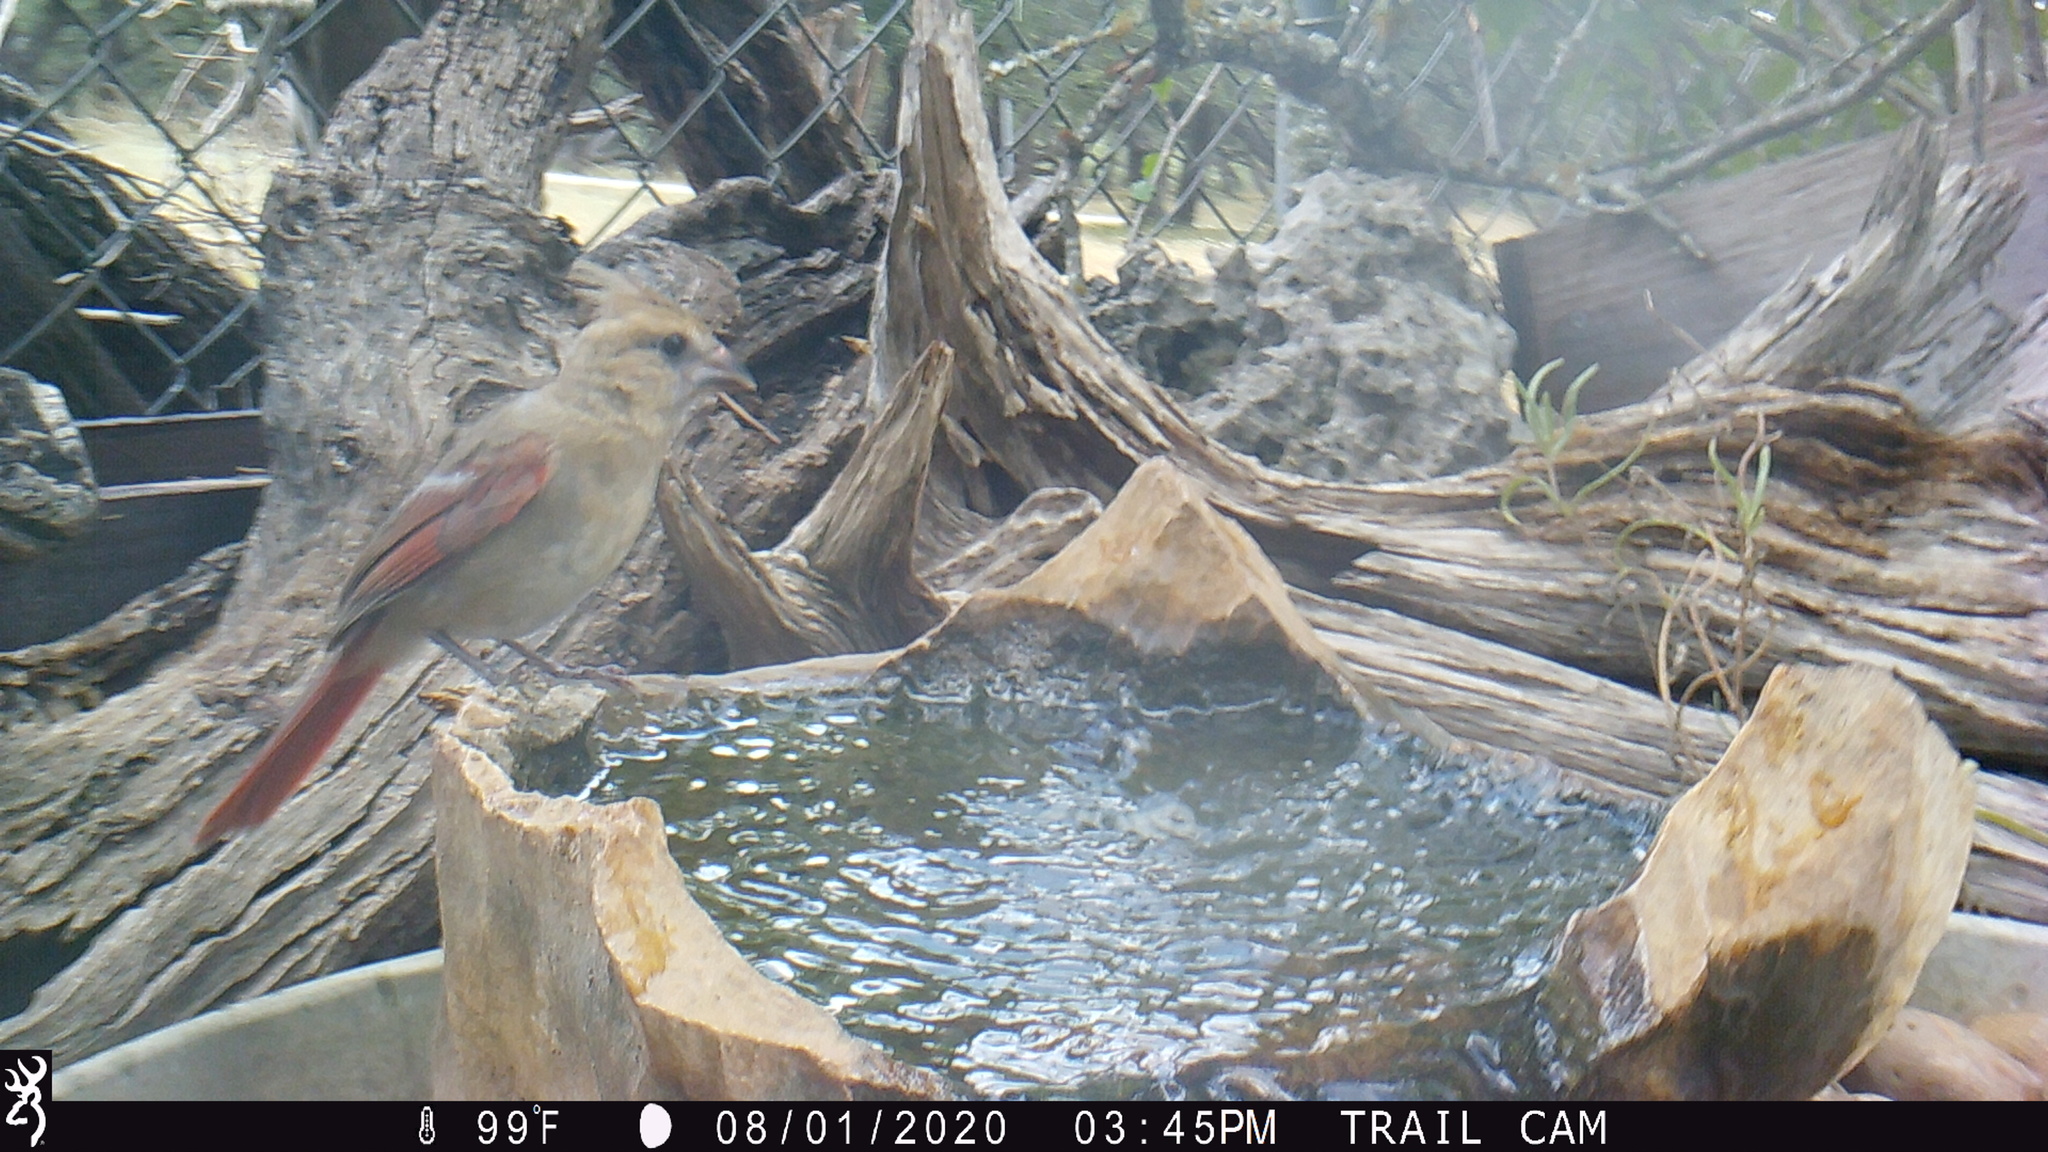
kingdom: Animalia
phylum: Chordata
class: Aves
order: Passeriformes
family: Cardinalidae
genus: Cardinalis
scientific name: Cardinalis cardinalis
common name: Northern cardinal
